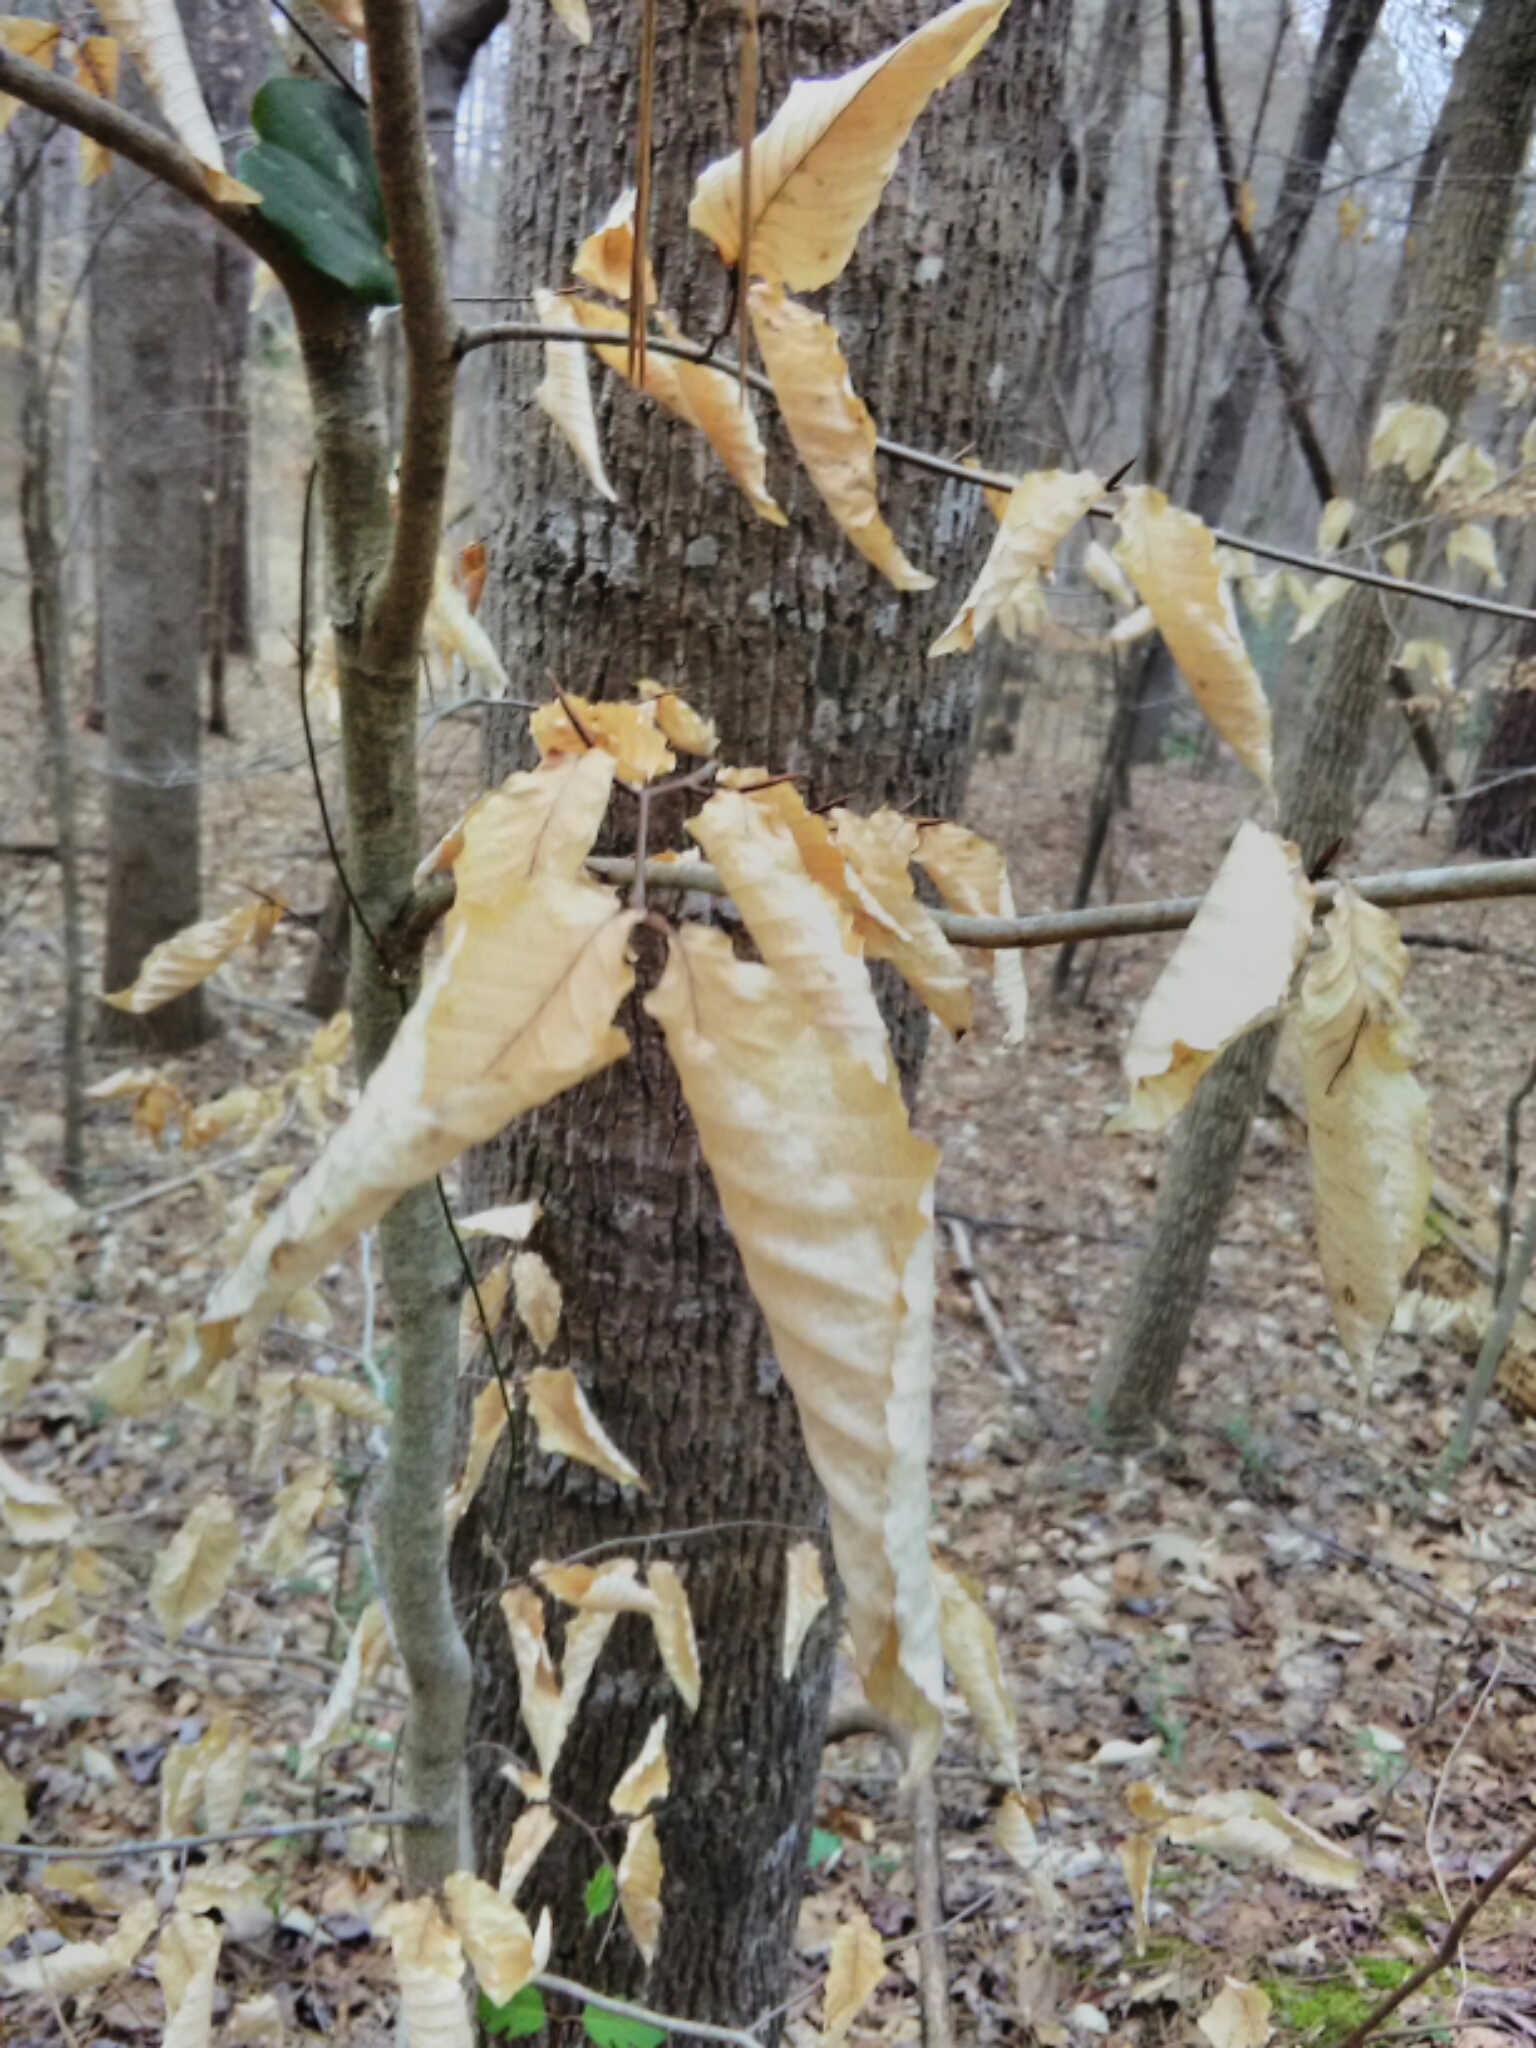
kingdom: Plantae
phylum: Tracheophyta
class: Magnoliopsida
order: Fagales
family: Fagaceae
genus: Fagus
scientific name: Fagus grandifolia
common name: American beech
